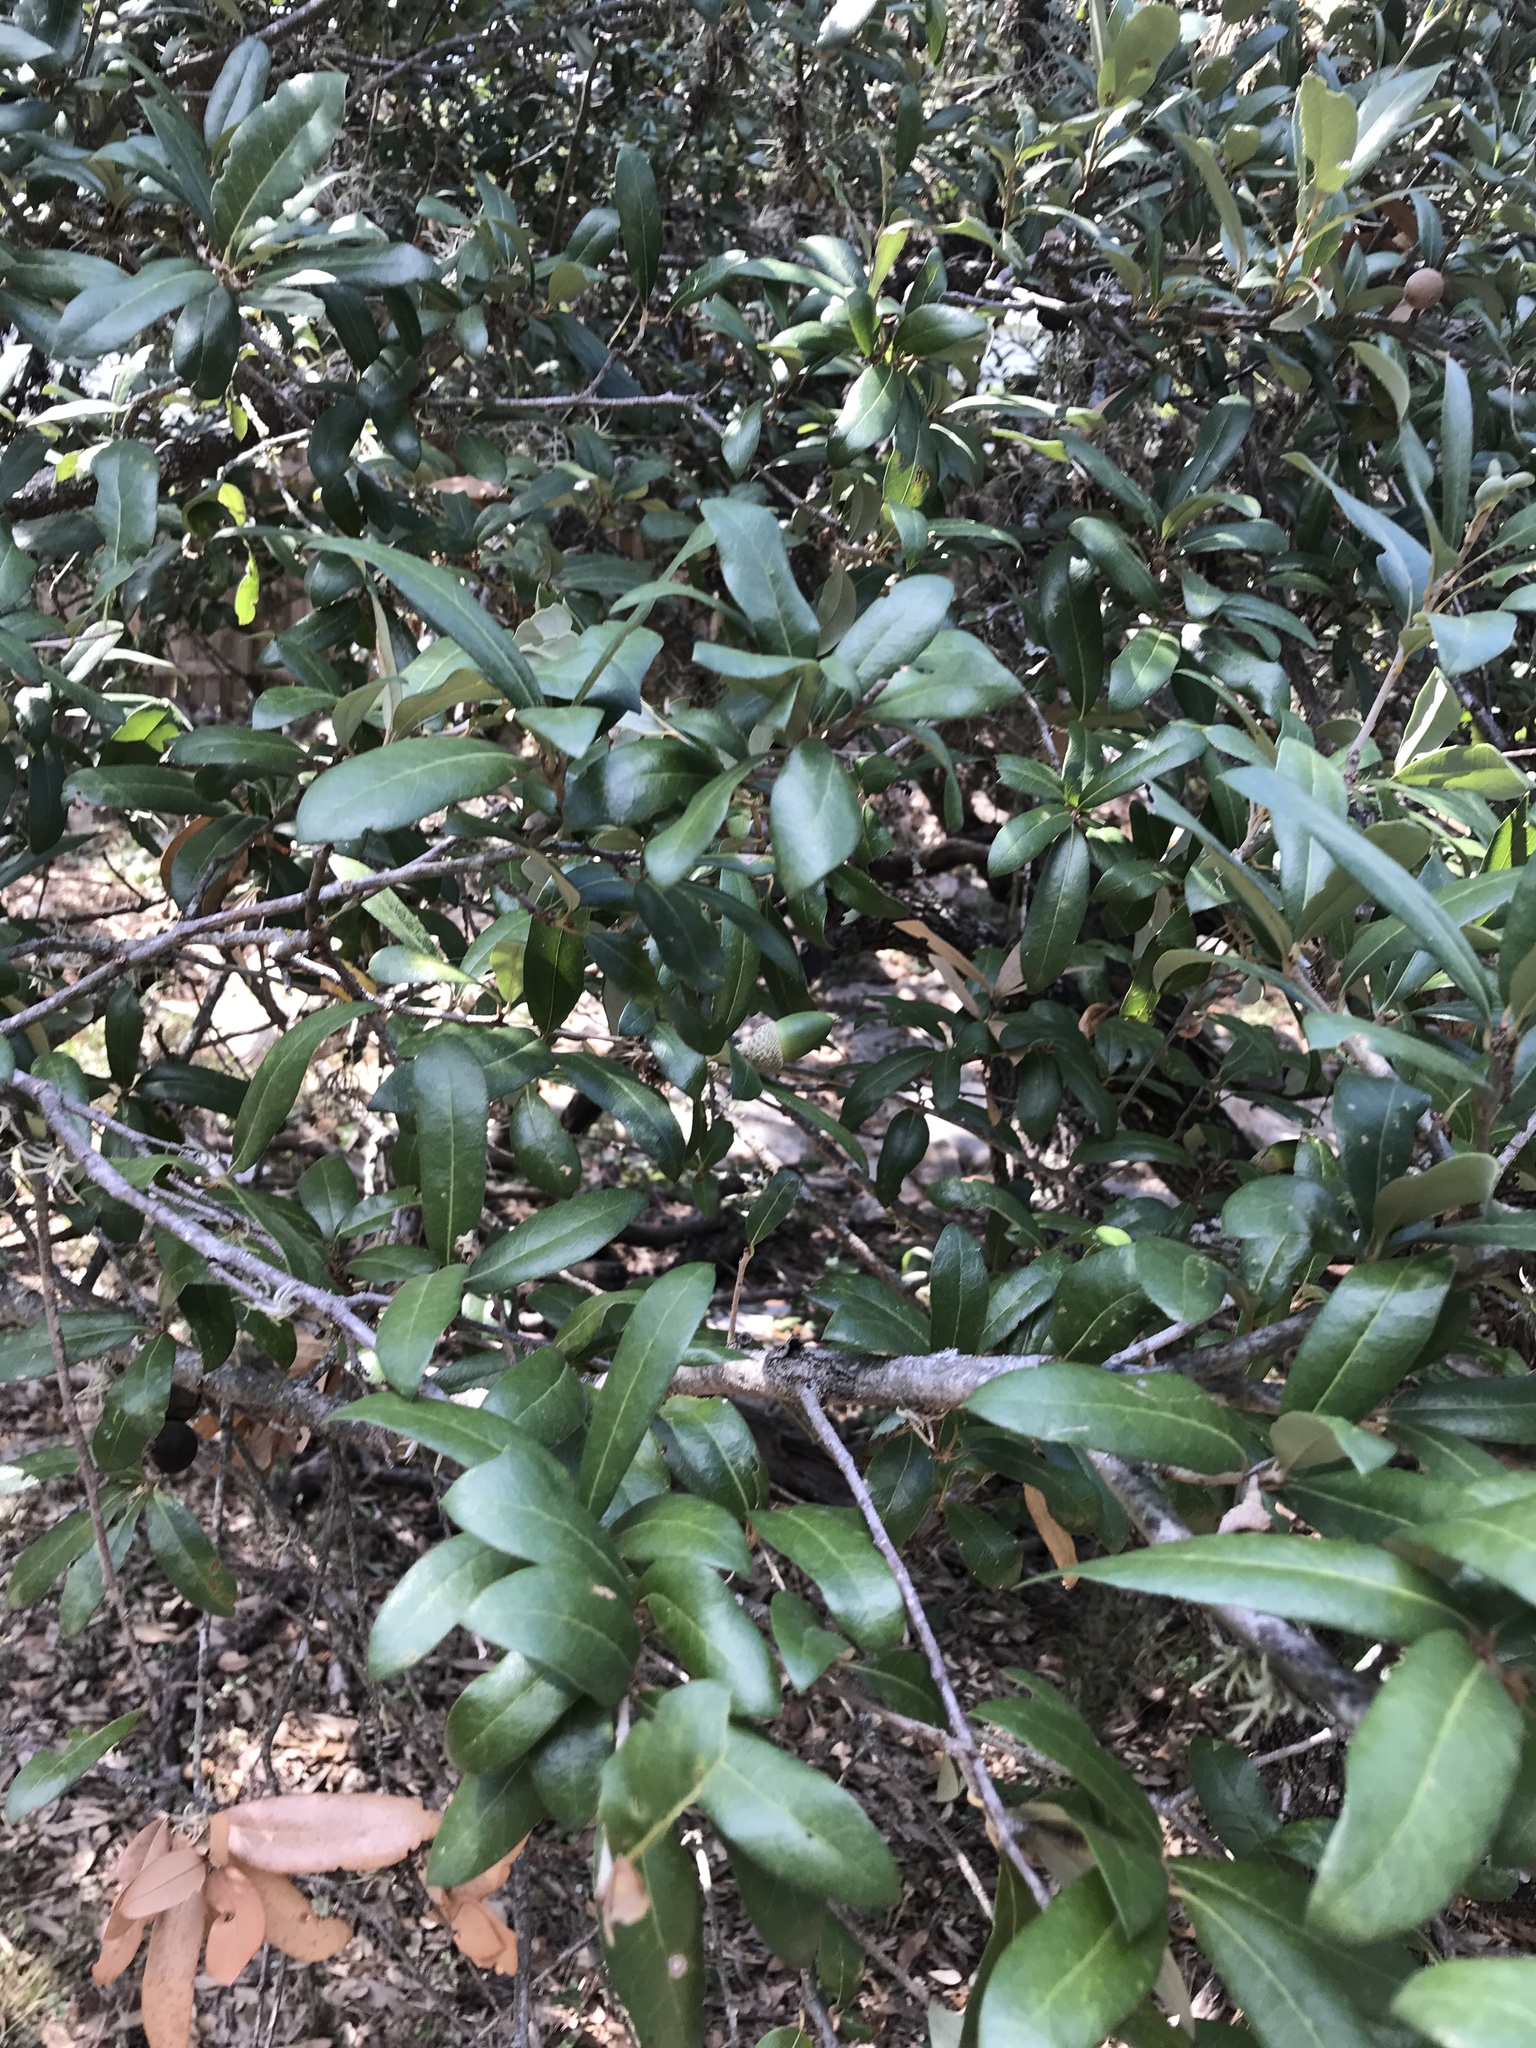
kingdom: Plantae
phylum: Tracheophyta
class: Magnoliopsida
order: Fagales
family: Fagaceae
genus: Quercus
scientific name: Quercus fusiformis
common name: Texas live oak
